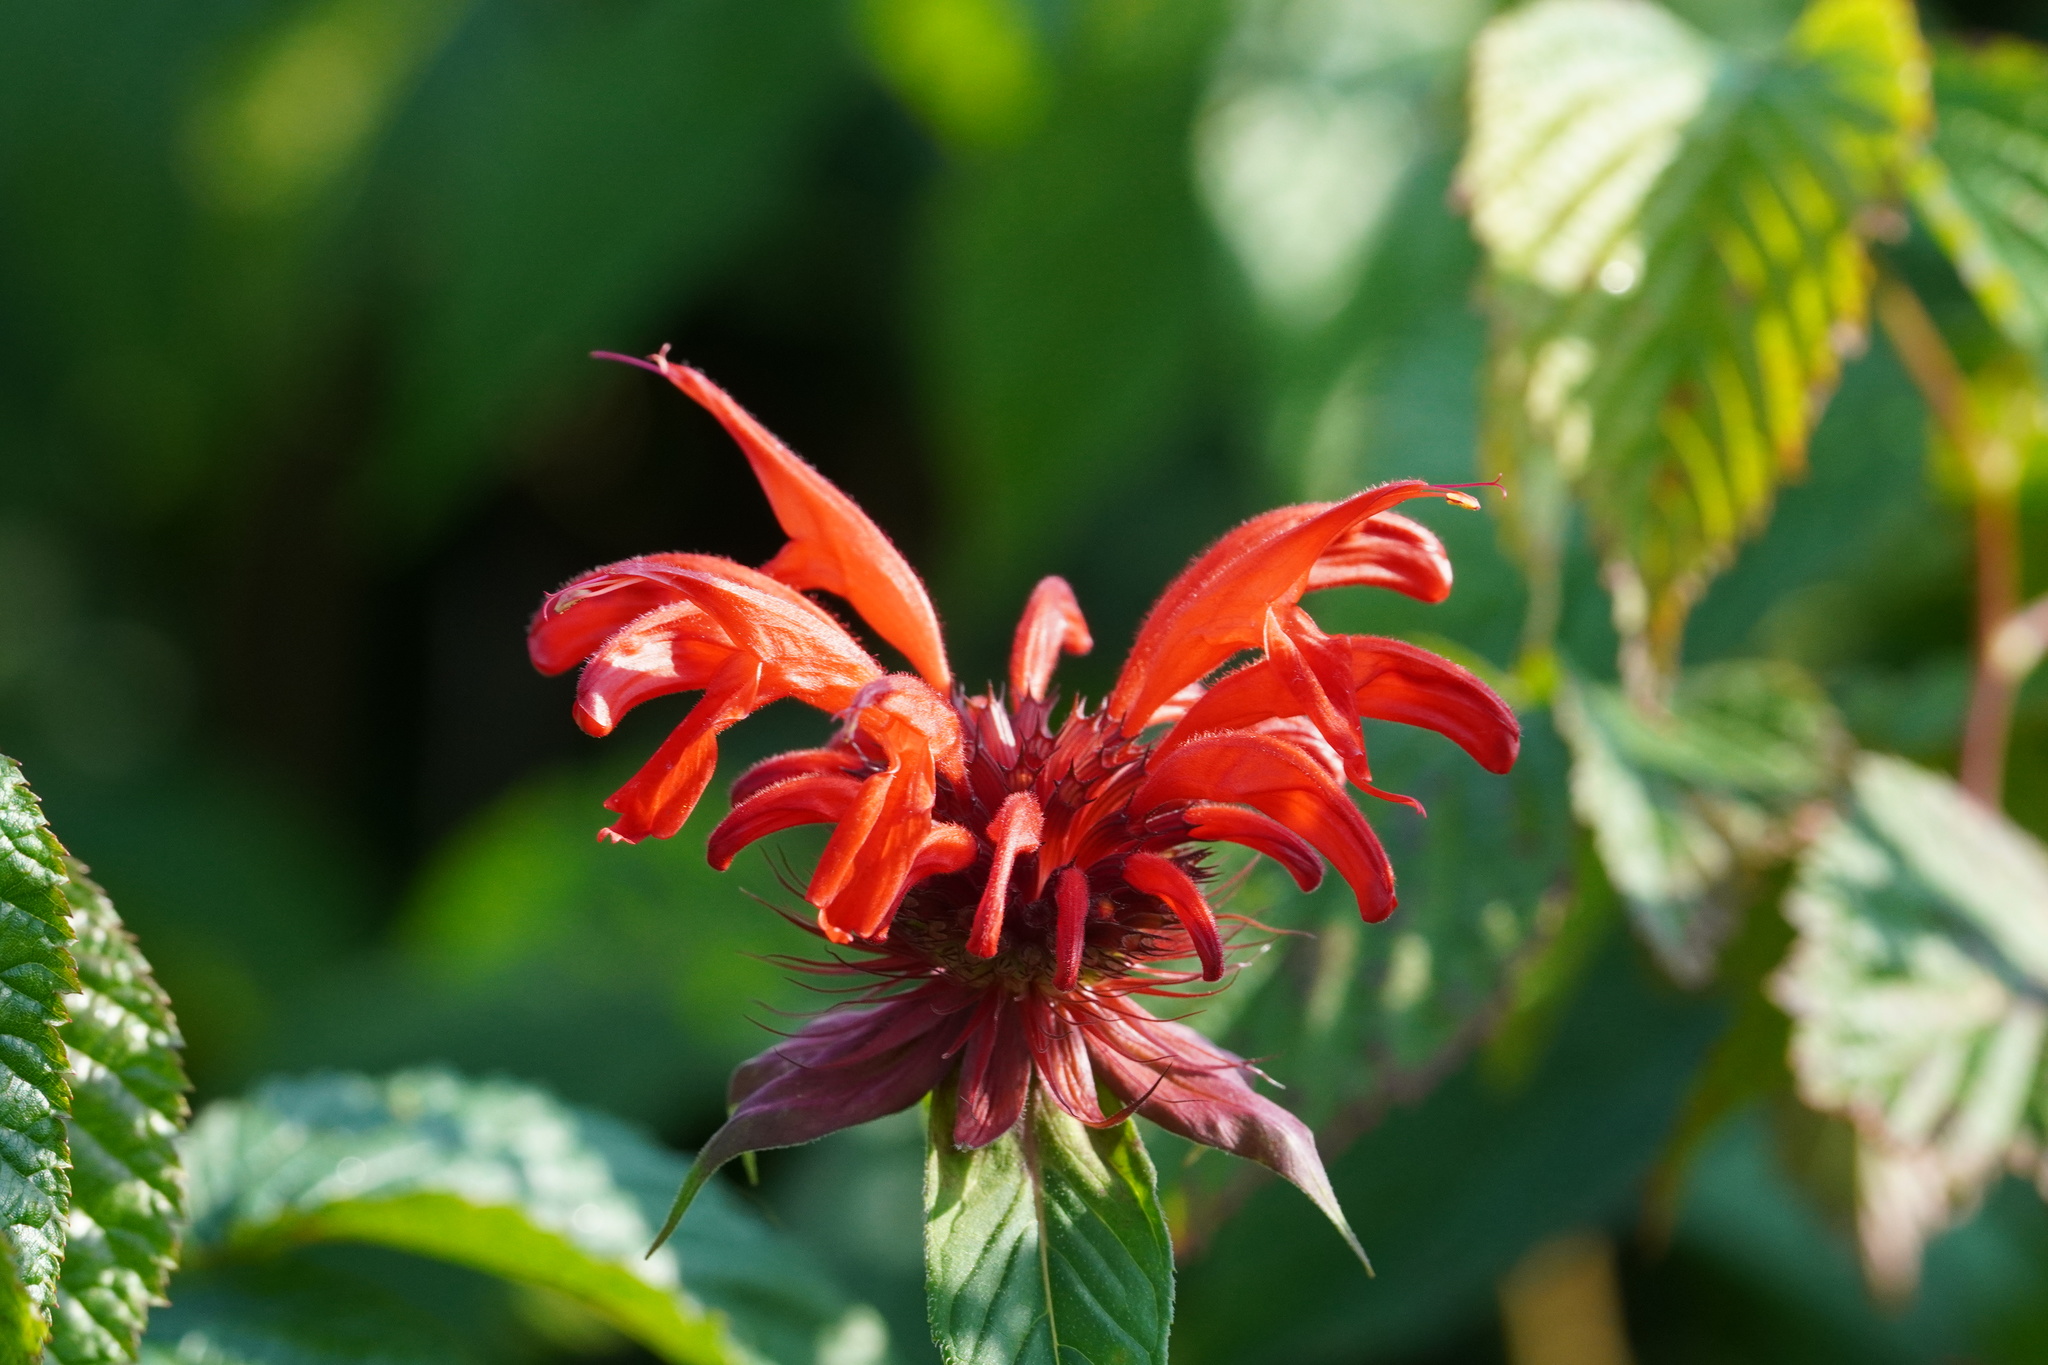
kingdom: Plantae
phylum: Tracheophyta
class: Magnoliopsida
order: Lamiales
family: Lamiaceae
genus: Monarda
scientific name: Monarda didyma
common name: Beebalm
